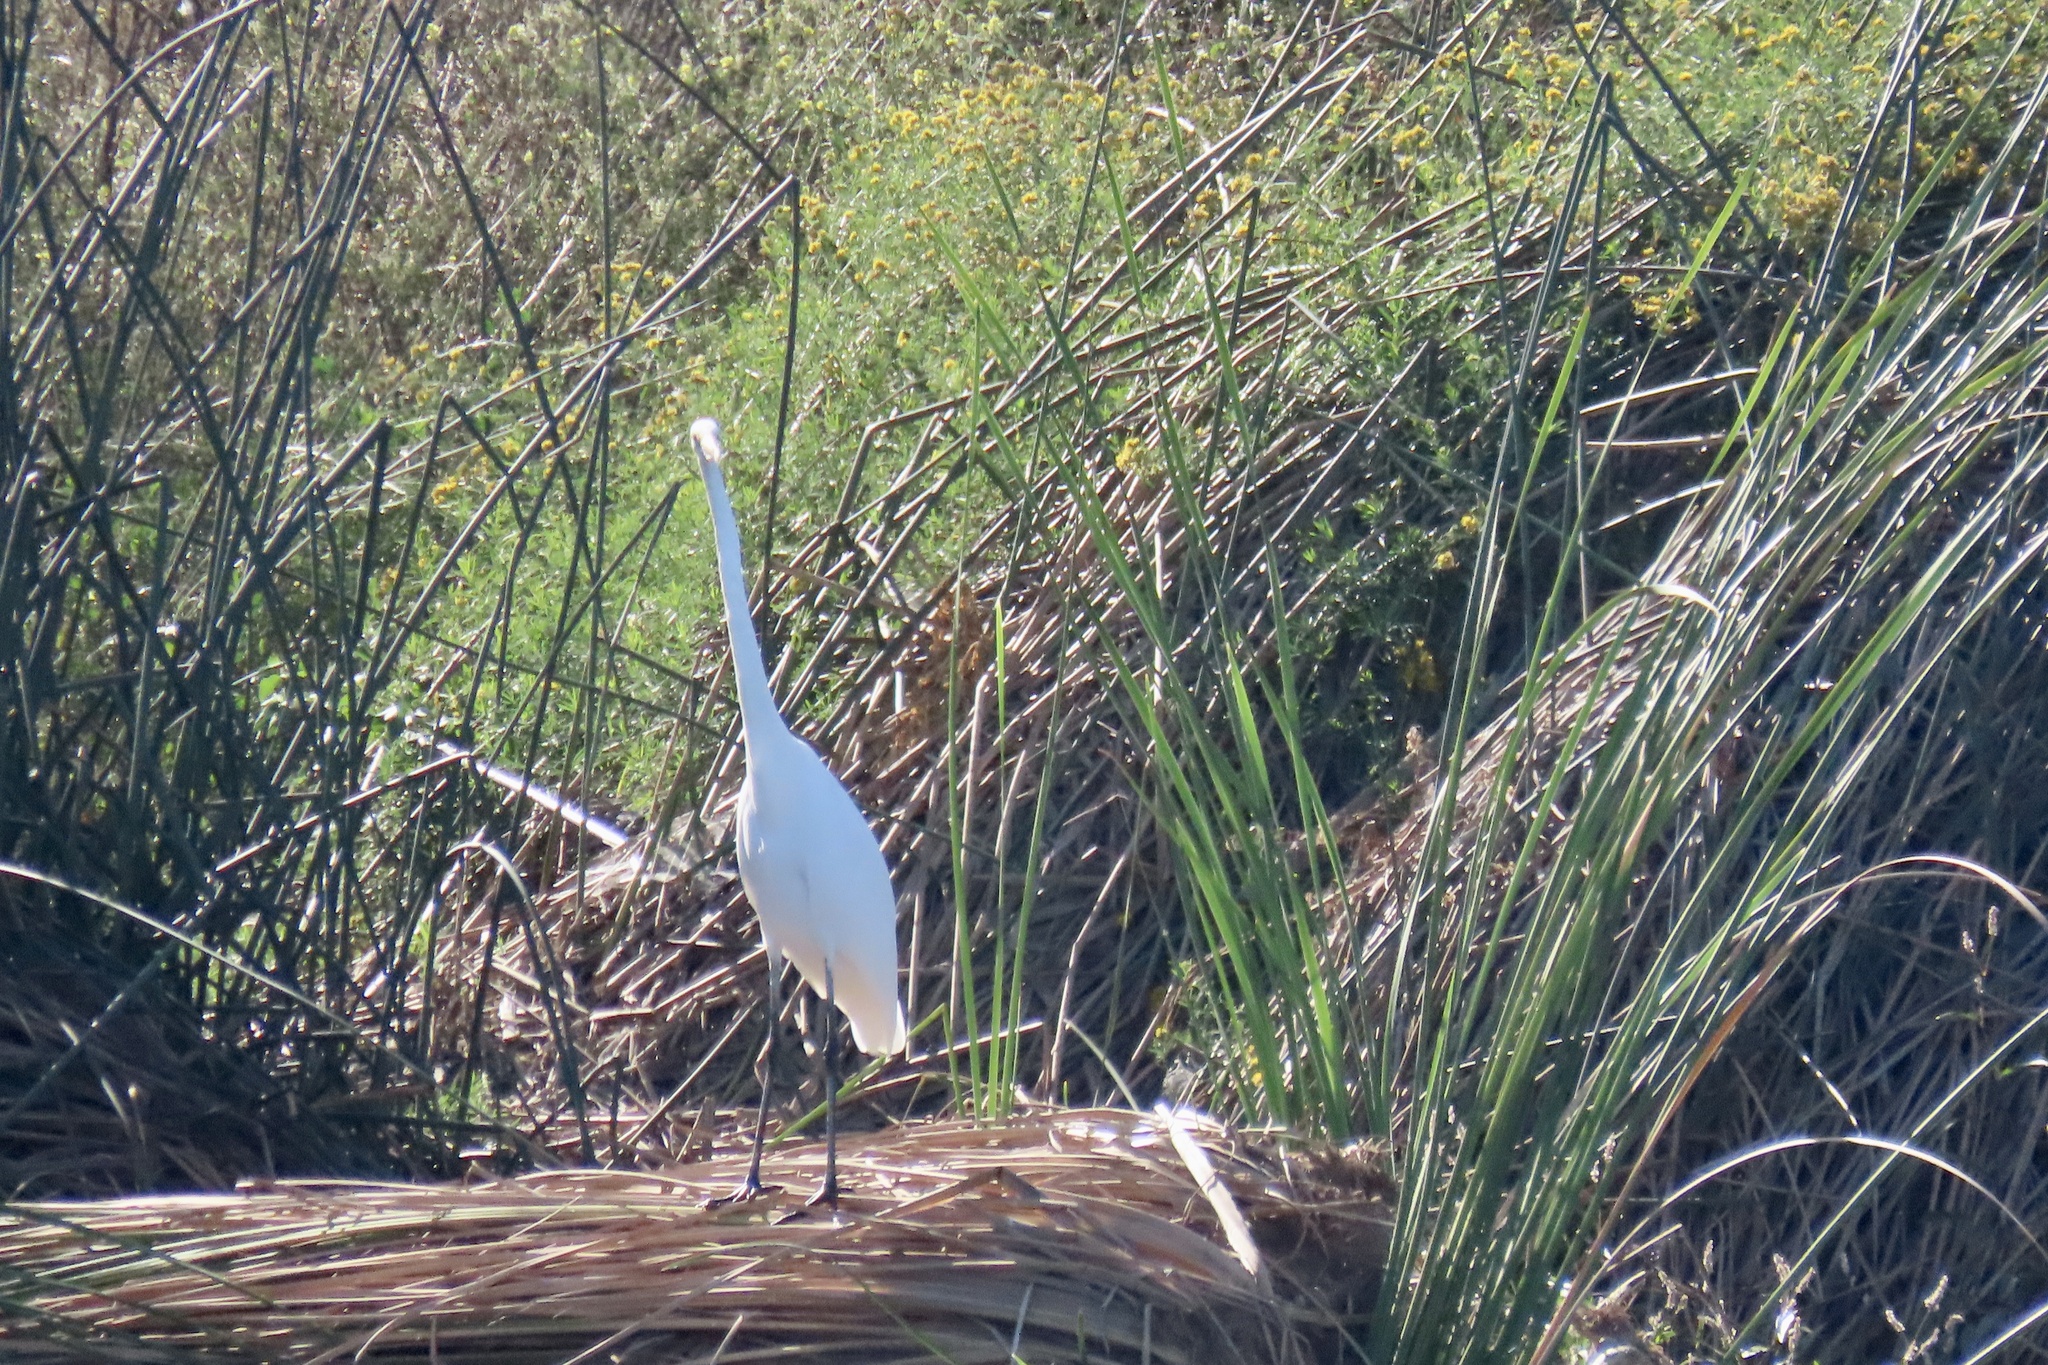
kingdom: Animalia
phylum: Chordata
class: Aves
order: Pelecaniformes
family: Ardeidae
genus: Ardea
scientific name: Ardea alba
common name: Great egret
